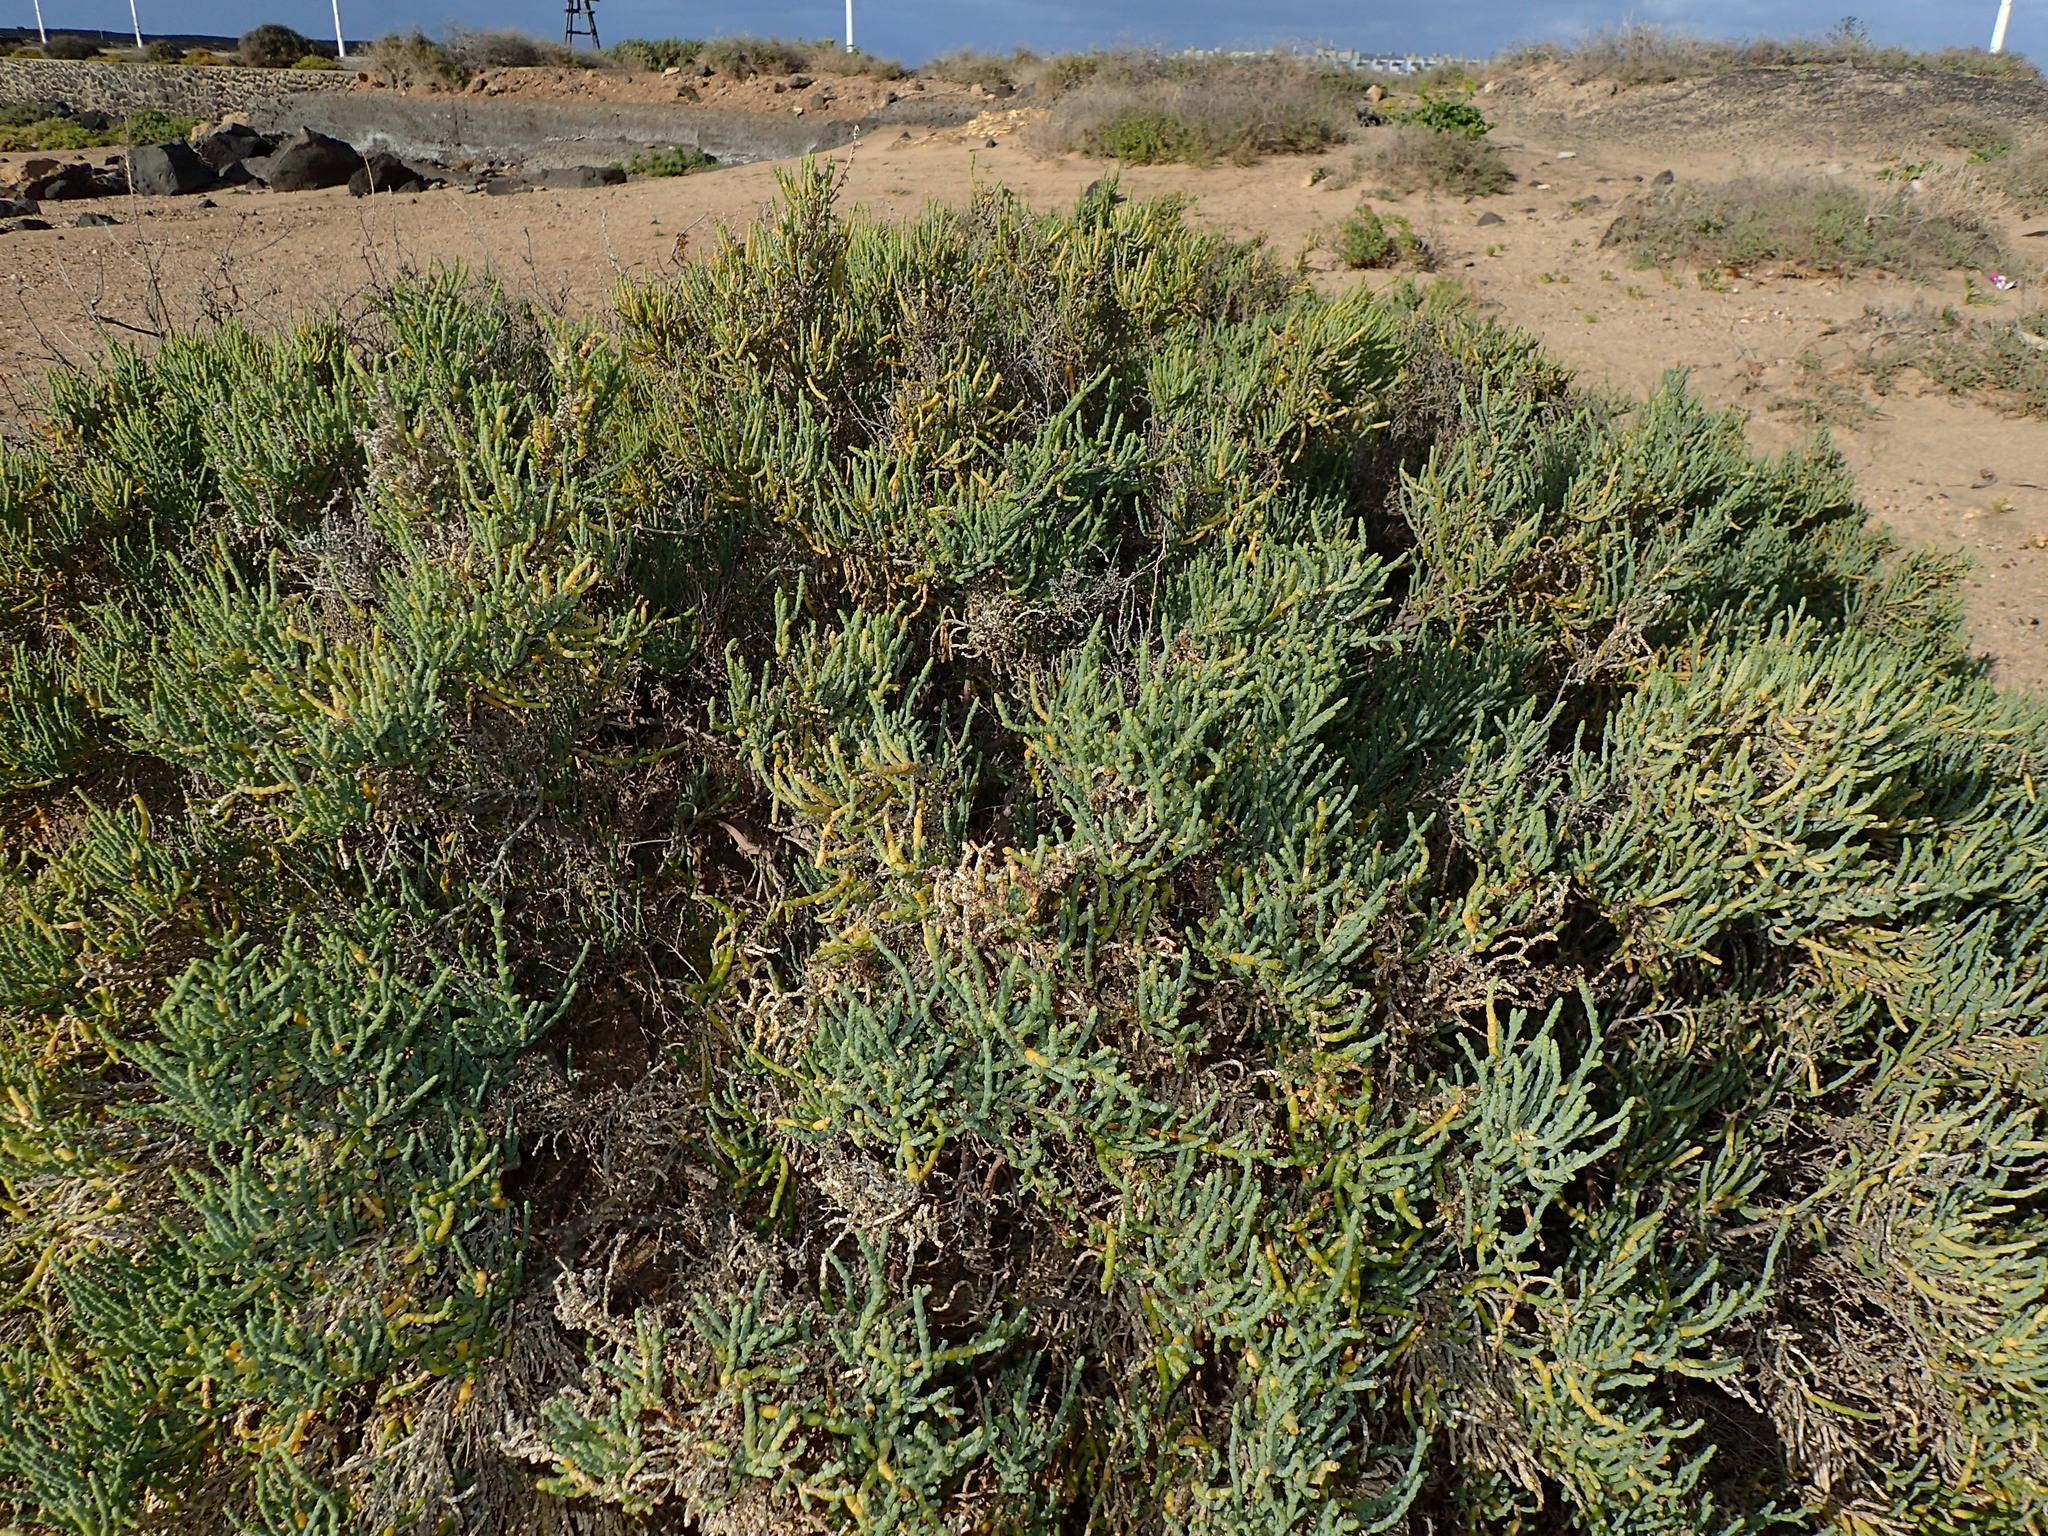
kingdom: Plantae
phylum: Tracheophyta
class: Magnoliopsida
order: Caryophyllales
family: Amaranthaceae
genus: Arthrocaulon
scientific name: Arthrocaulon macrostachyum
